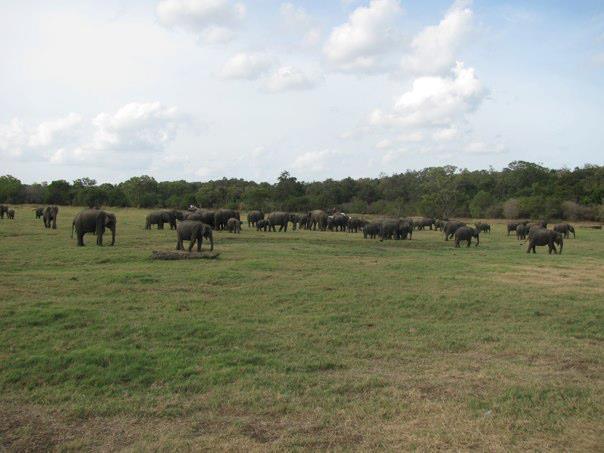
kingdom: Animalia
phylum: Chordata
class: Mammalia
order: Proboscidea
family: Elephantidae
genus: Elephas
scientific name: Elephas maximus
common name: Asian elephant
